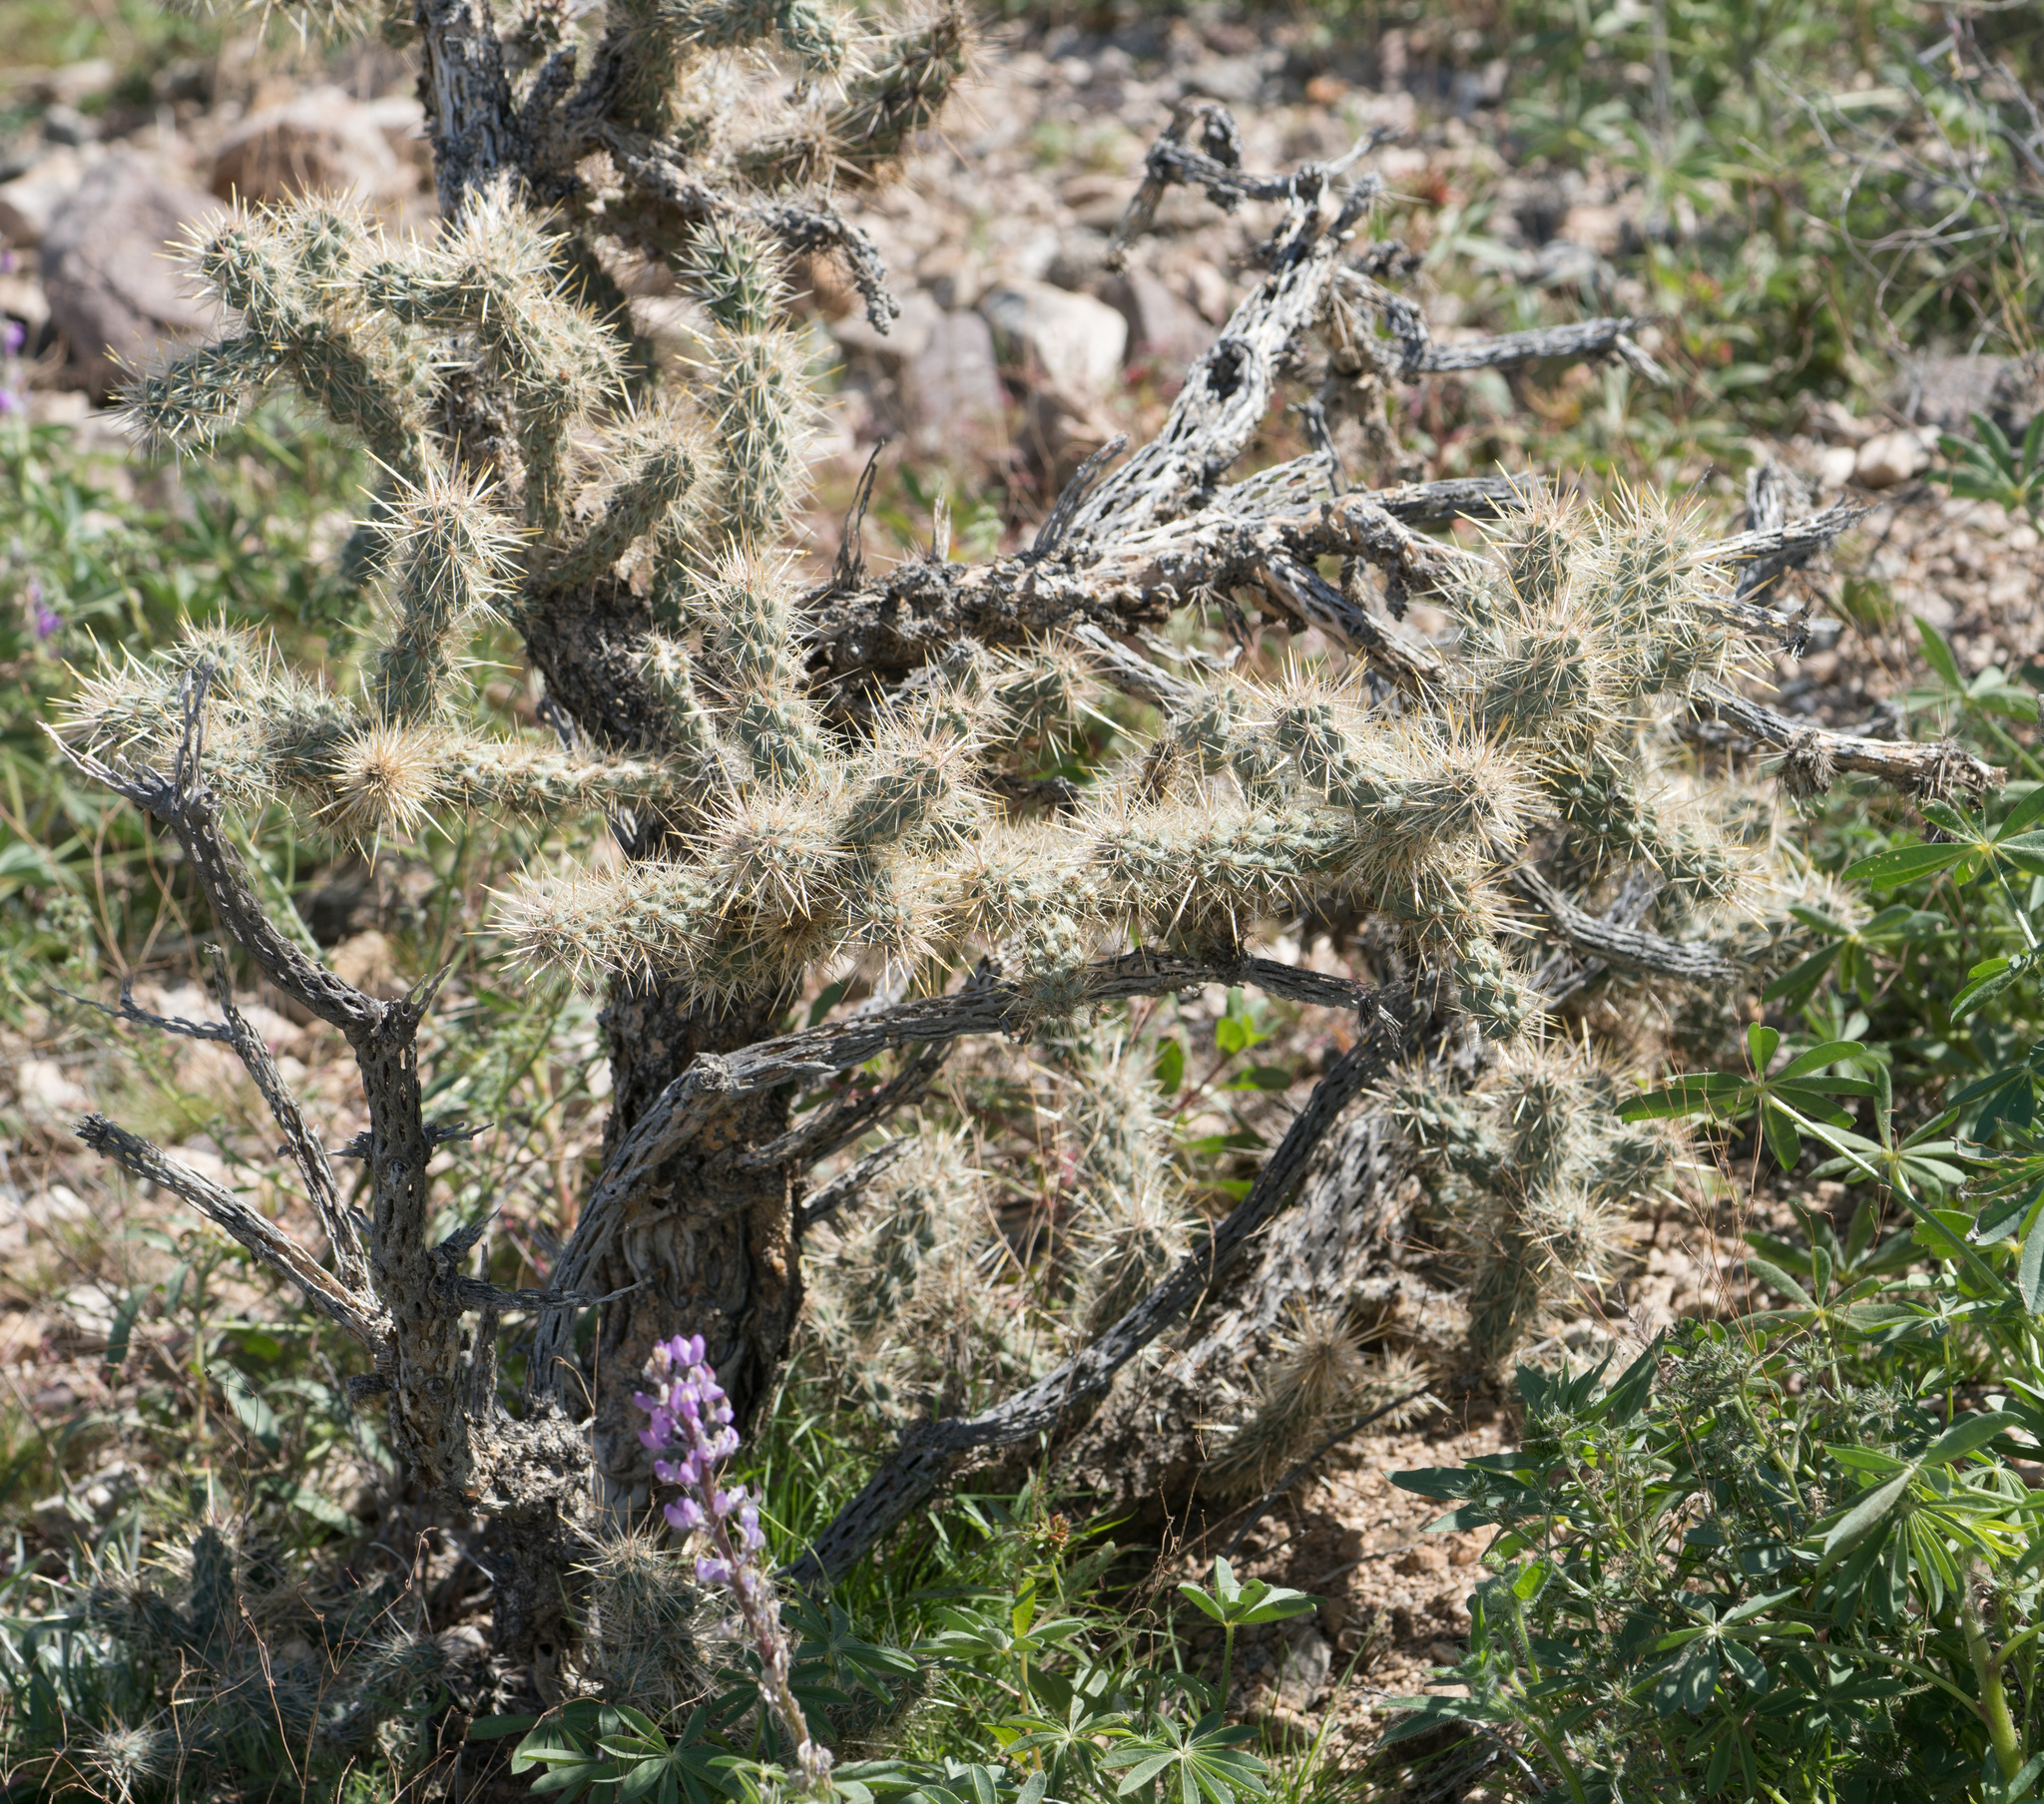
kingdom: Plantae
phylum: Tracheophyta
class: Magnoliopsida
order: Caryophyllales
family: Cactaceae
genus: Cylindropuntia
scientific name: Cylindropuntia echinocarpa
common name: Ground cholla
